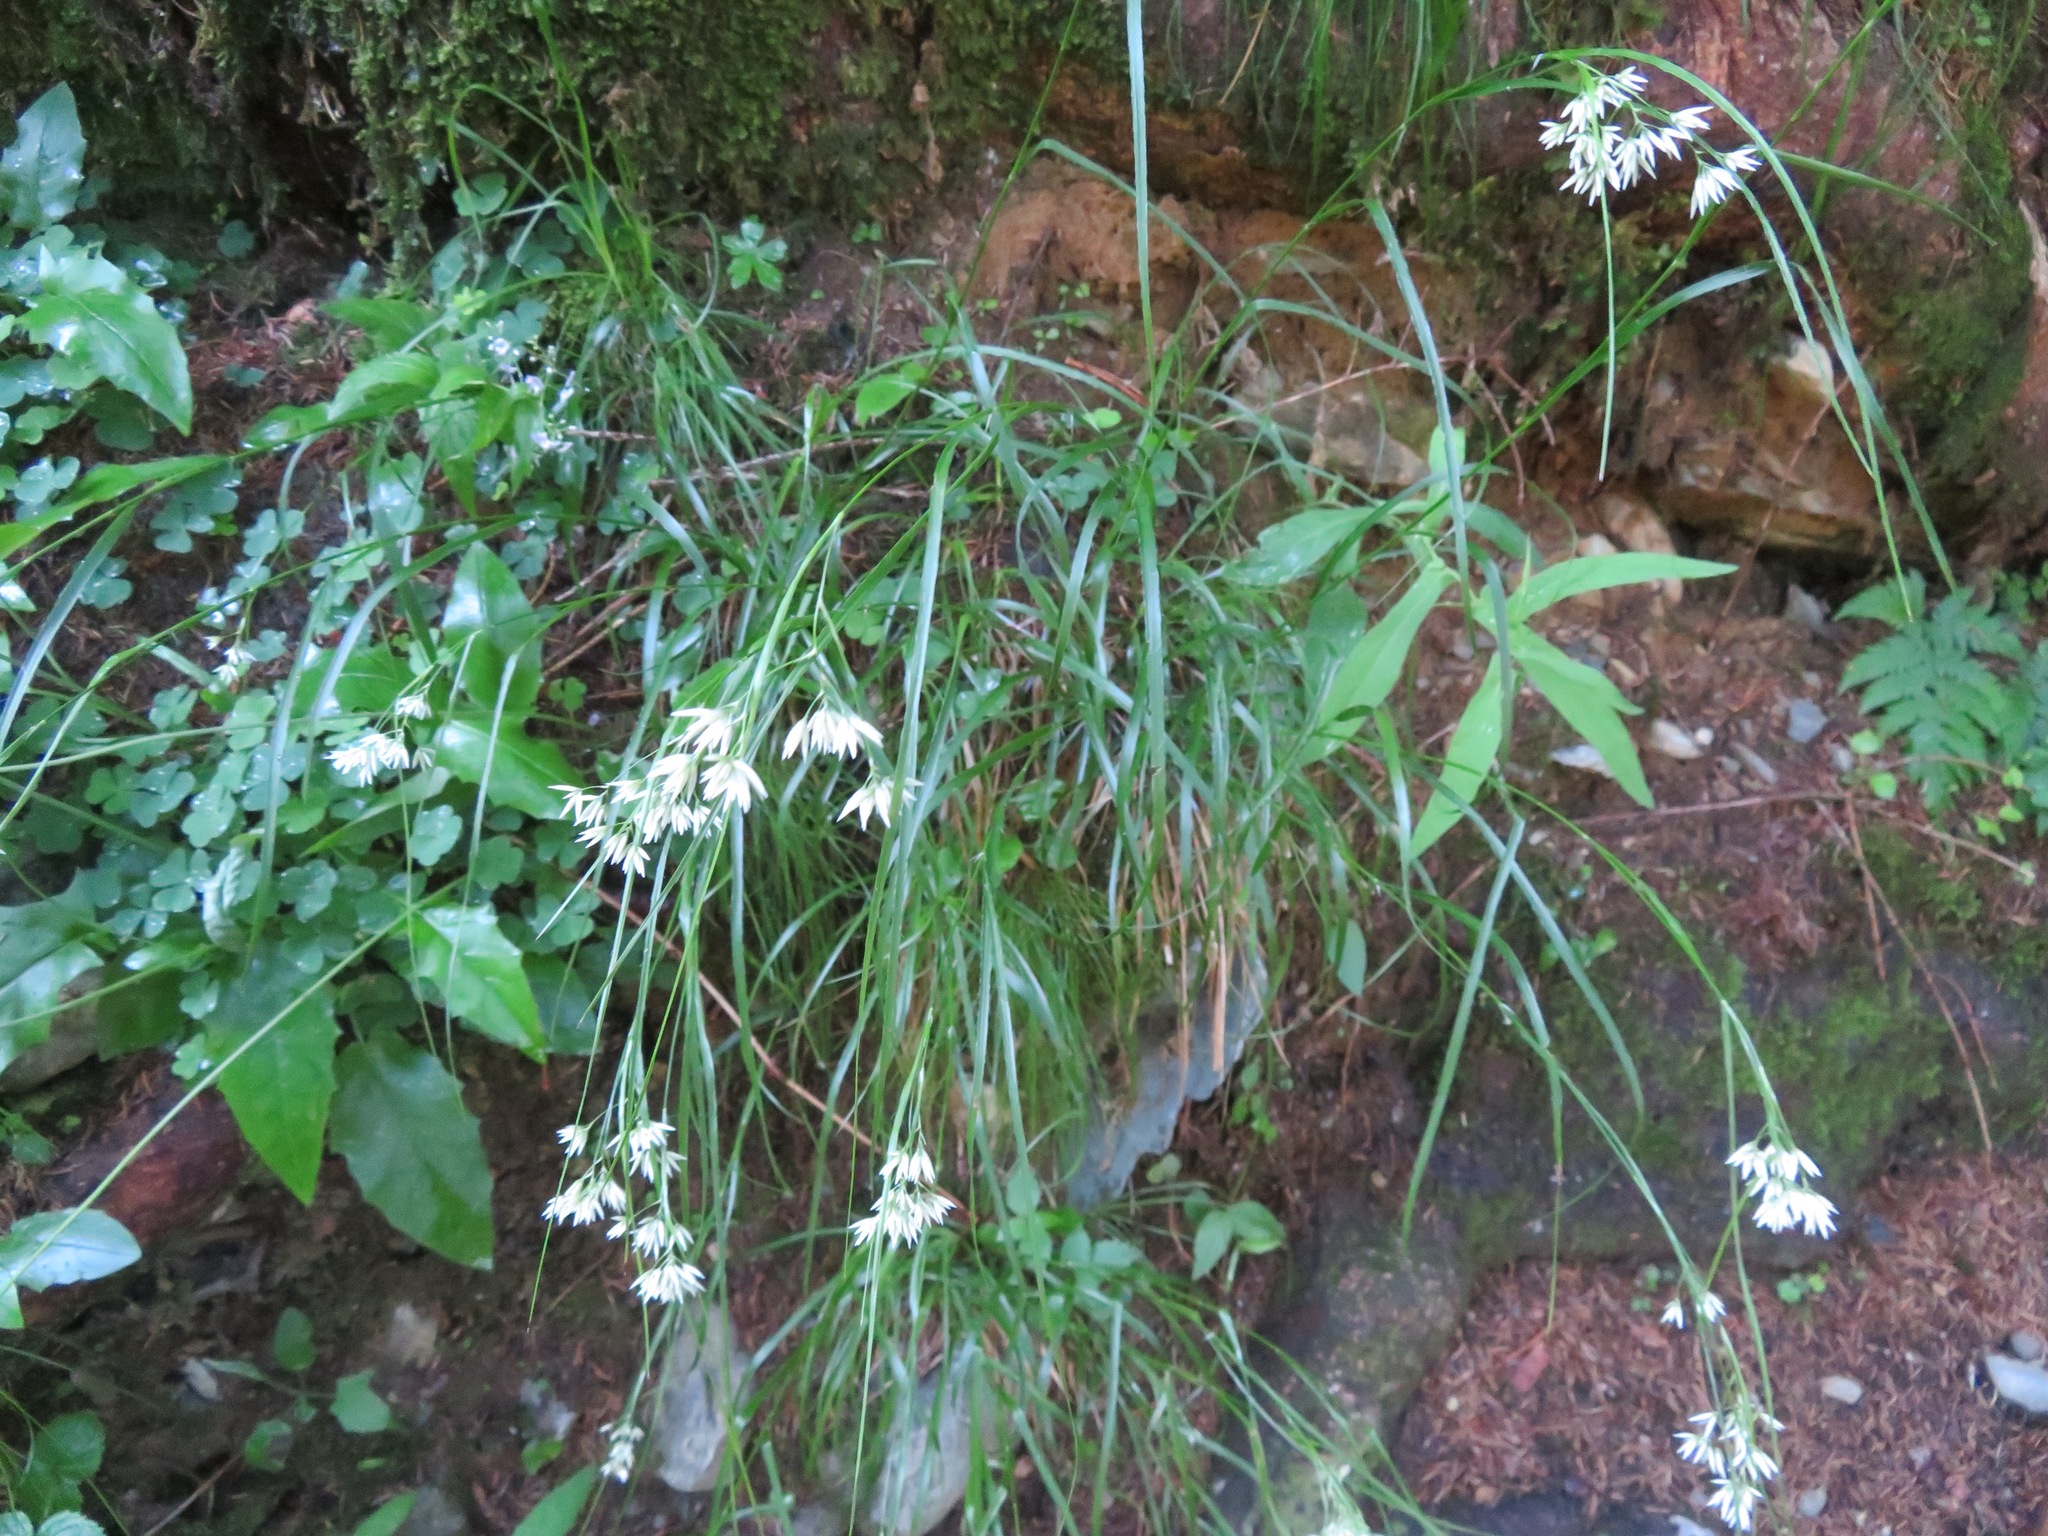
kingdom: Plantae
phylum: Tracheophyta
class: Liliopsida
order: Poales
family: Juncaceae
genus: Luzula
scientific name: Luzula nivea
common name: Snow-white wood-rush
